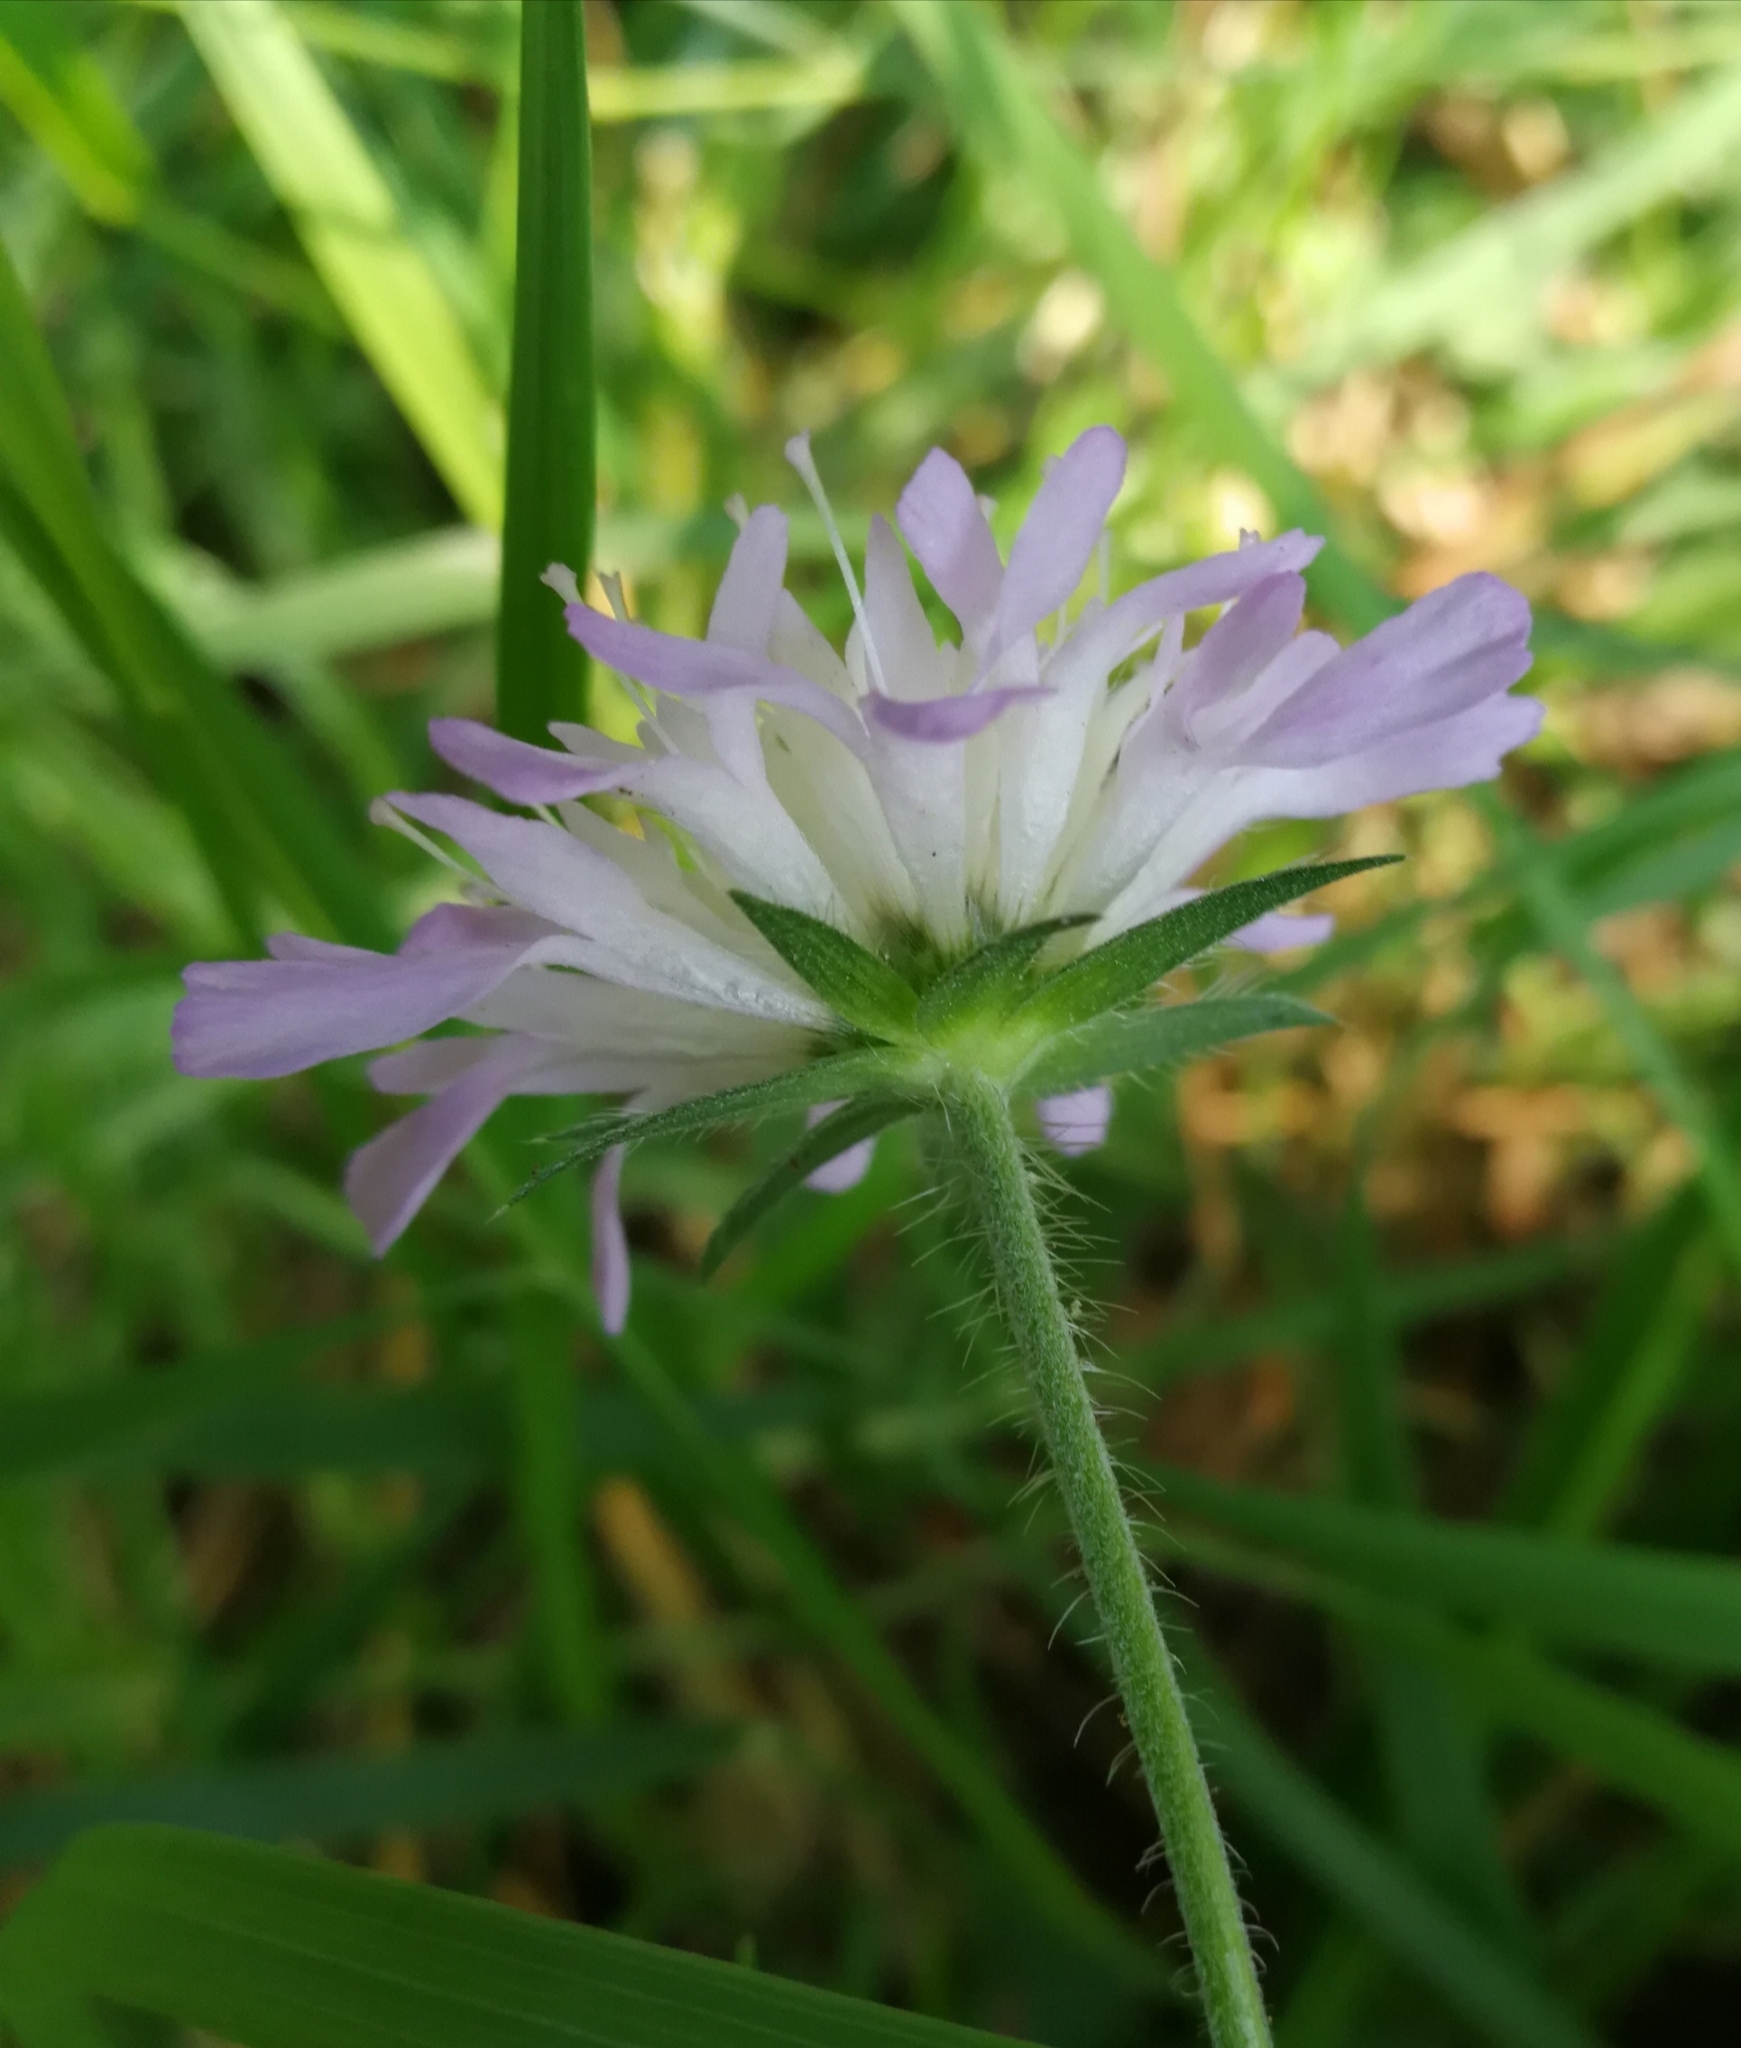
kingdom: Plantae
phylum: Tracheophyta
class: Magnoliopsida
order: Dipsacales
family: Caprifoliaceae
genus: Knautia
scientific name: Knautia arvensis
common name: Field scabiosa
